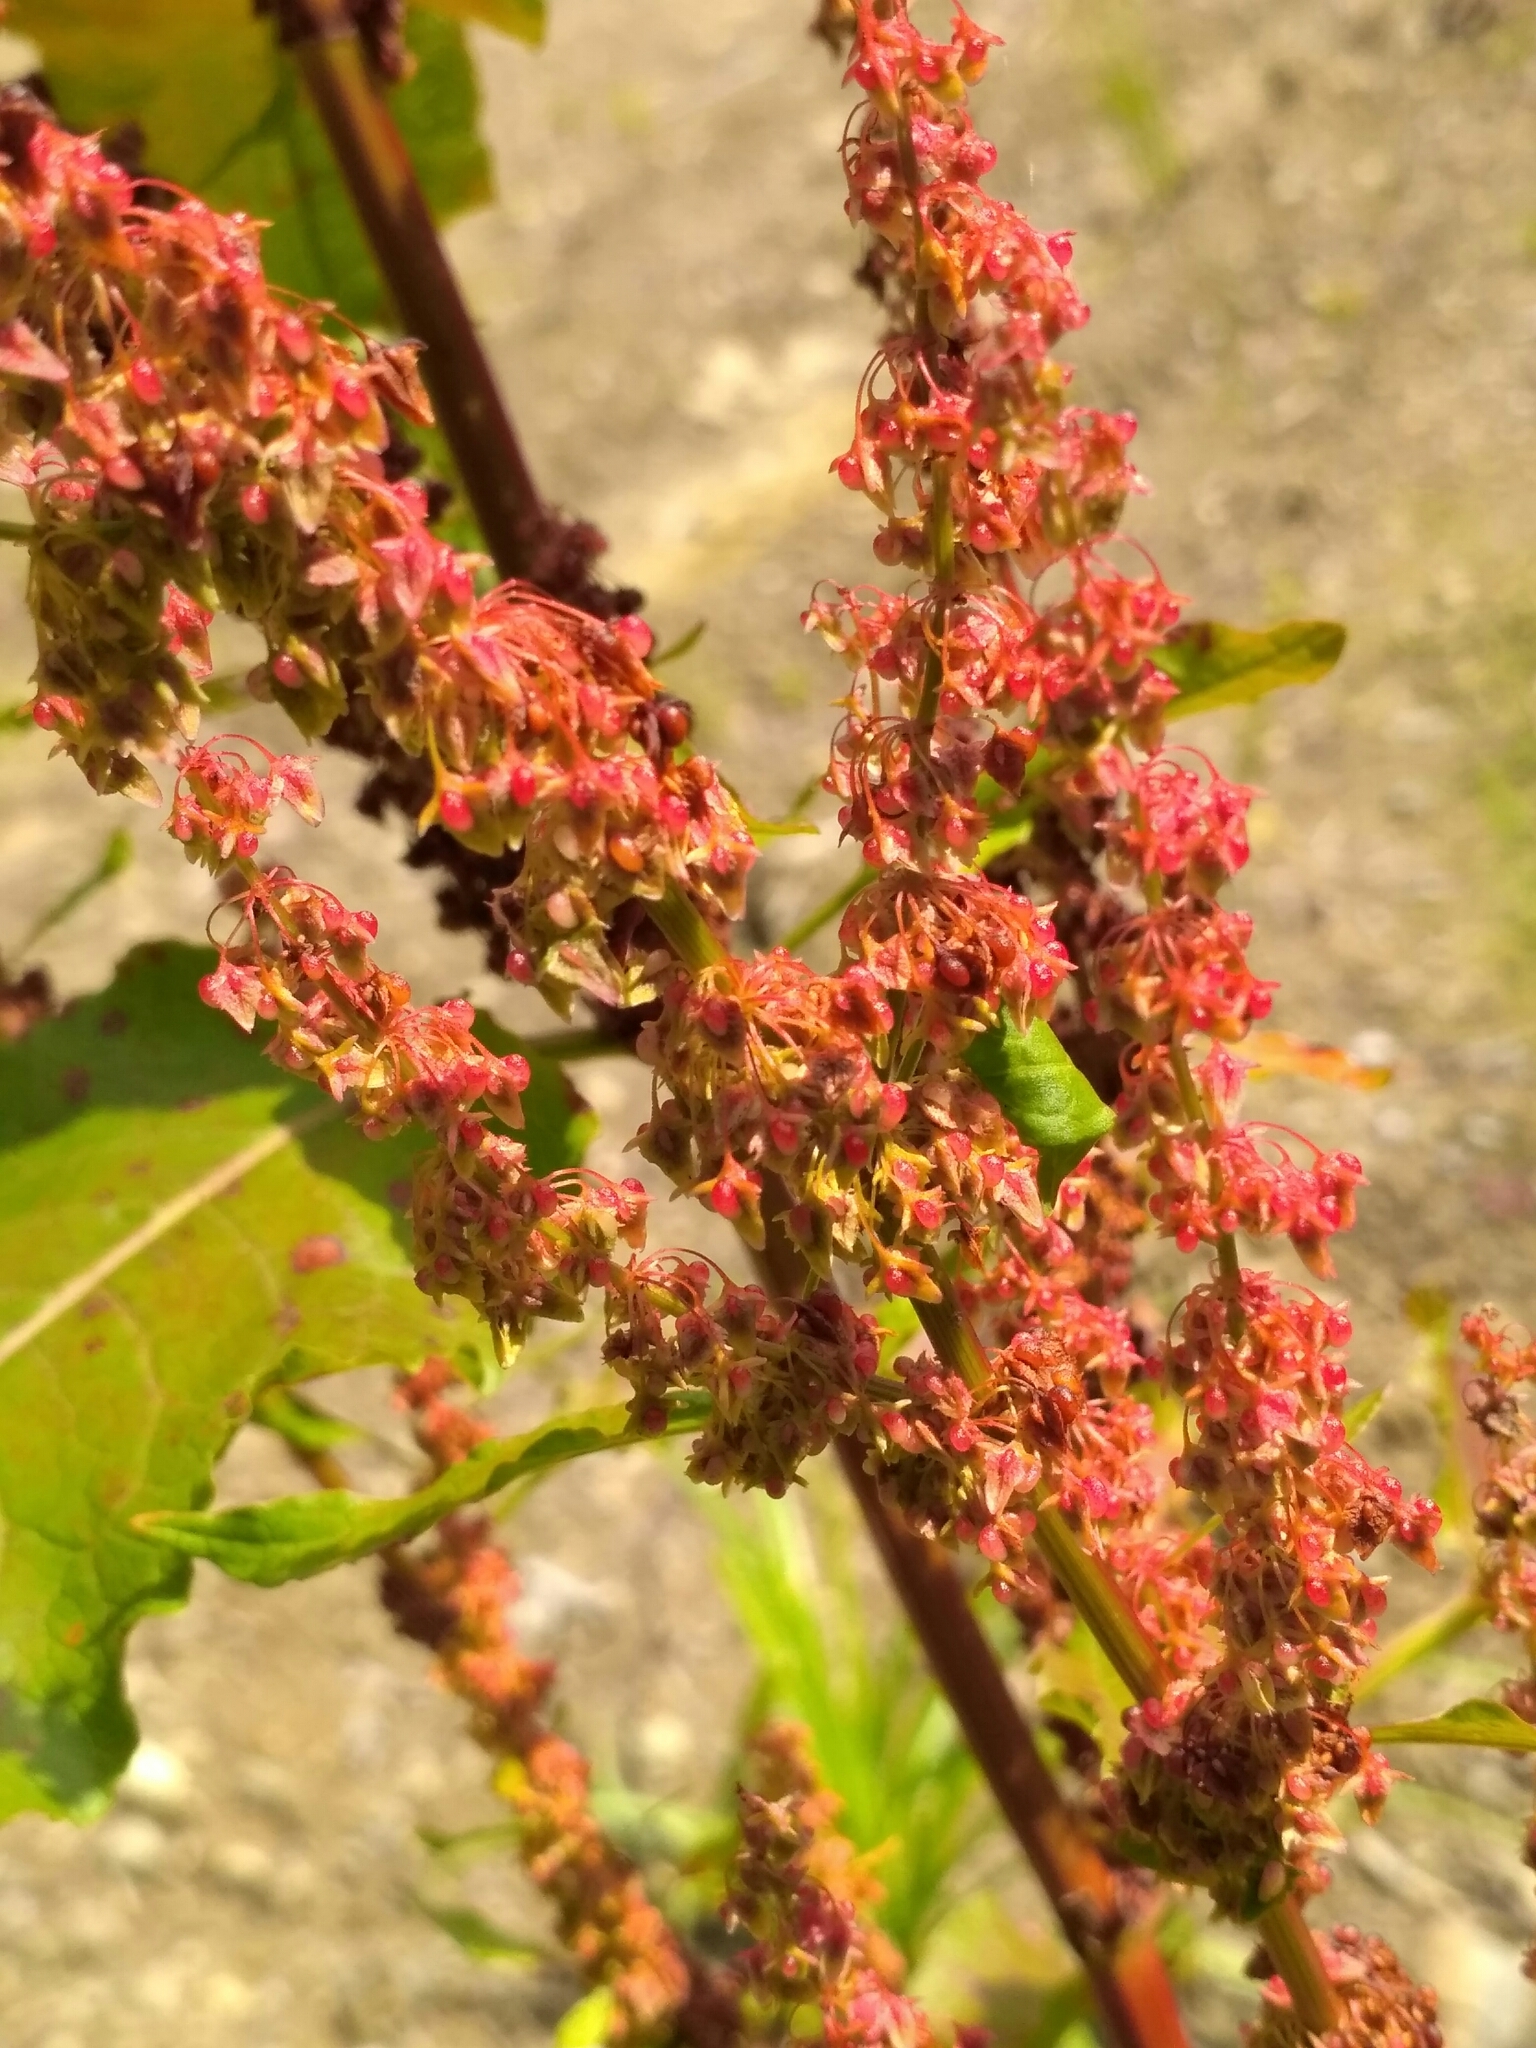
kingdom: Plantae
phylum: Tracheophyta
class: Magnoliopsida
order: Caryophyllales
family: Polygonaceae
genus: Rumex
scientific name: Rumex obtusifolius
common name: Bitter dock
